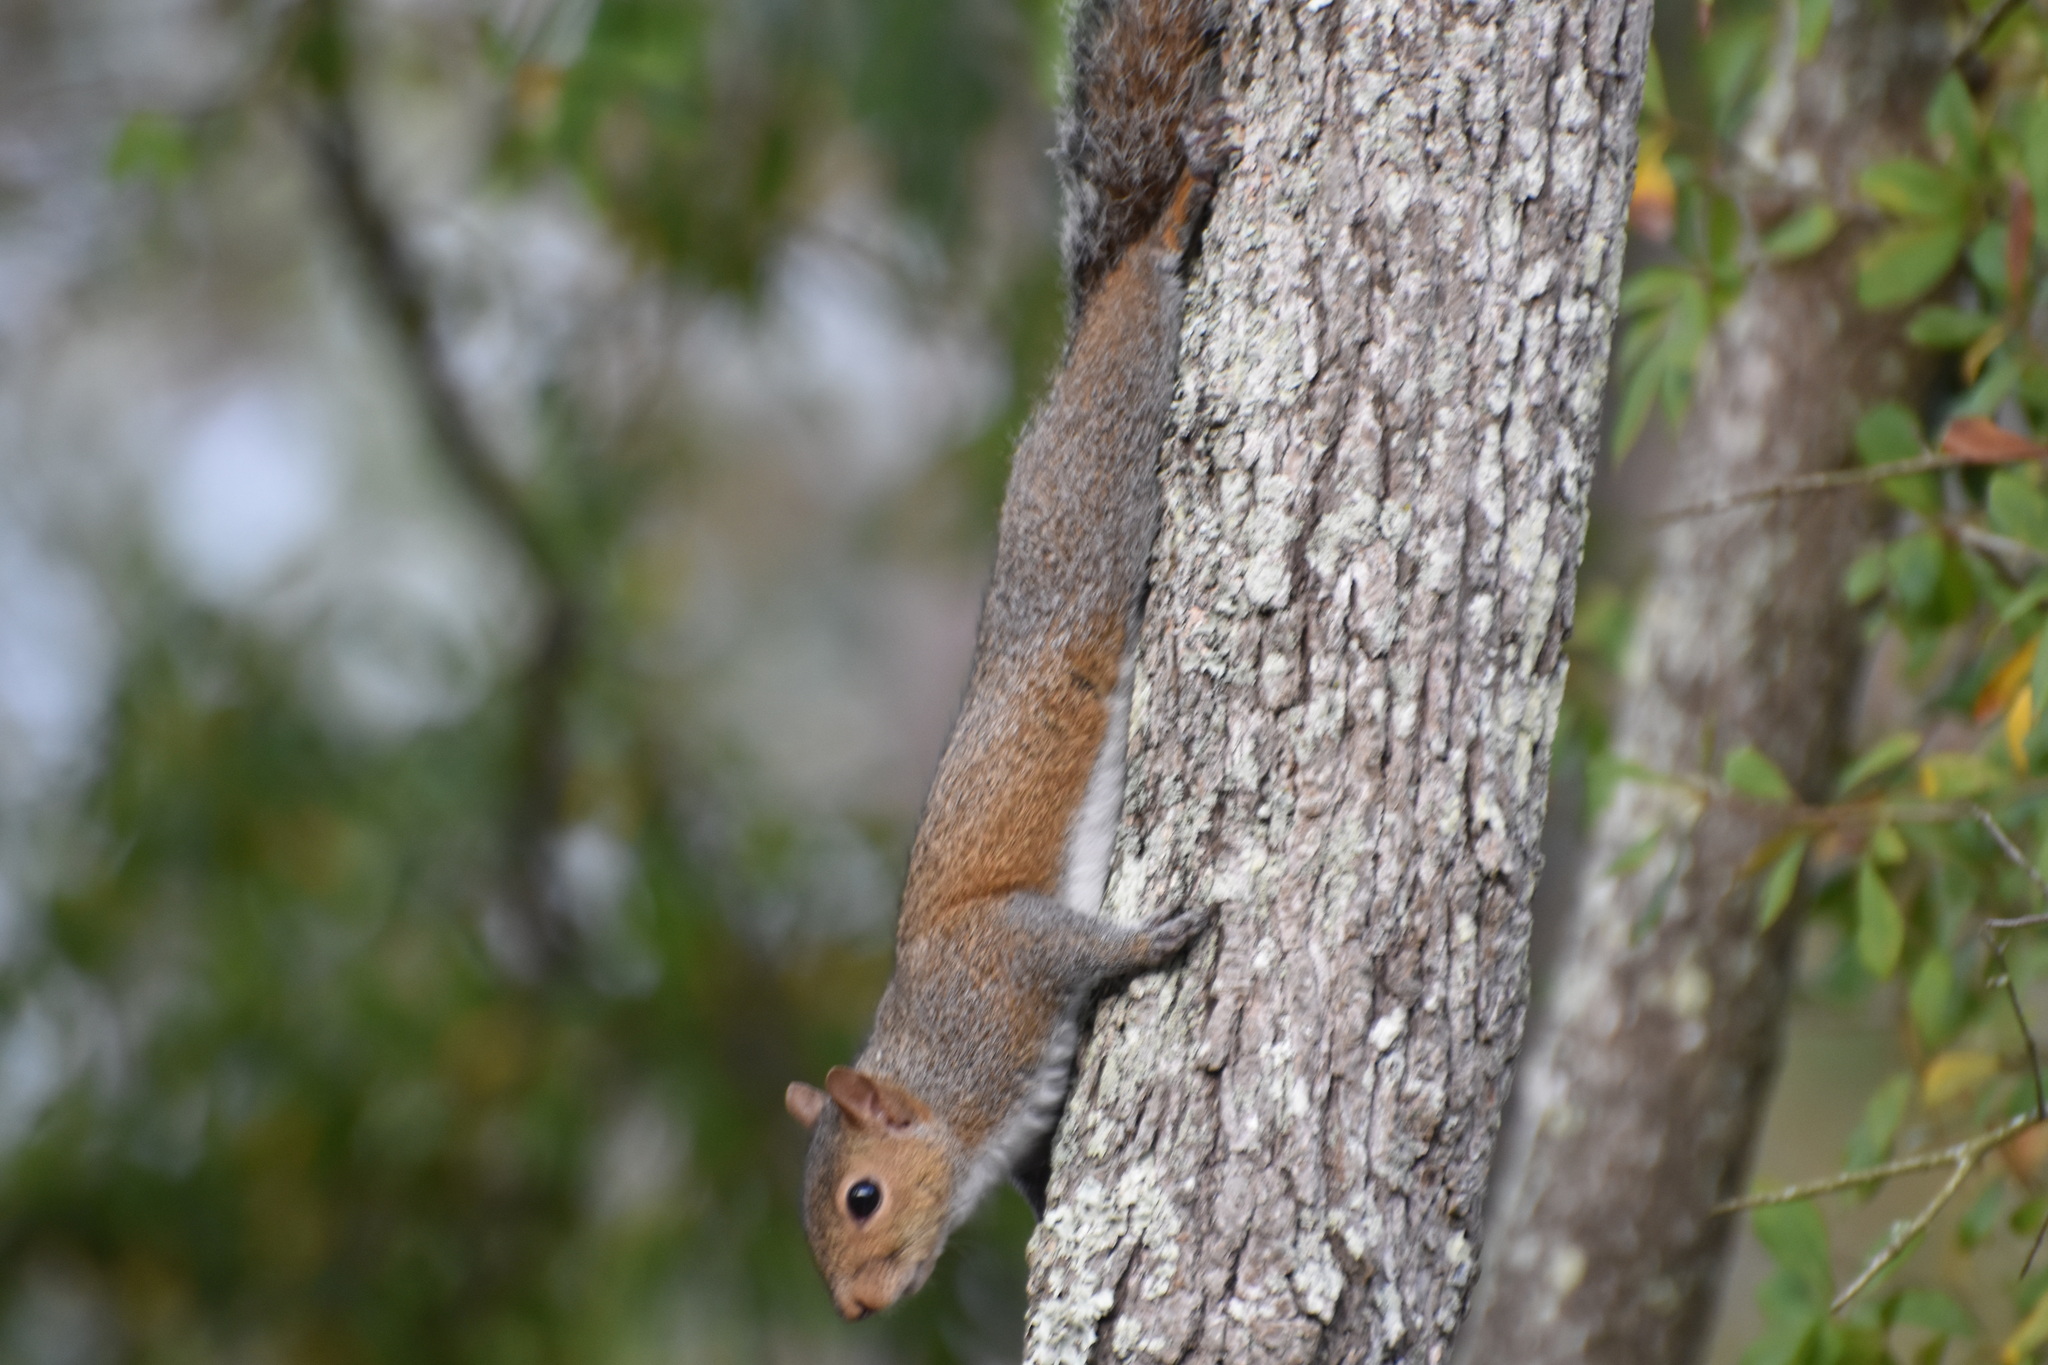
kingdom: Animalia
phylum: Chordata
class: Mammalia
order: Rodentia
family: Sciuridae
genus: Sciurus
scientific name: Sciurus carolinensis
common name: Eastern gray squirrel
